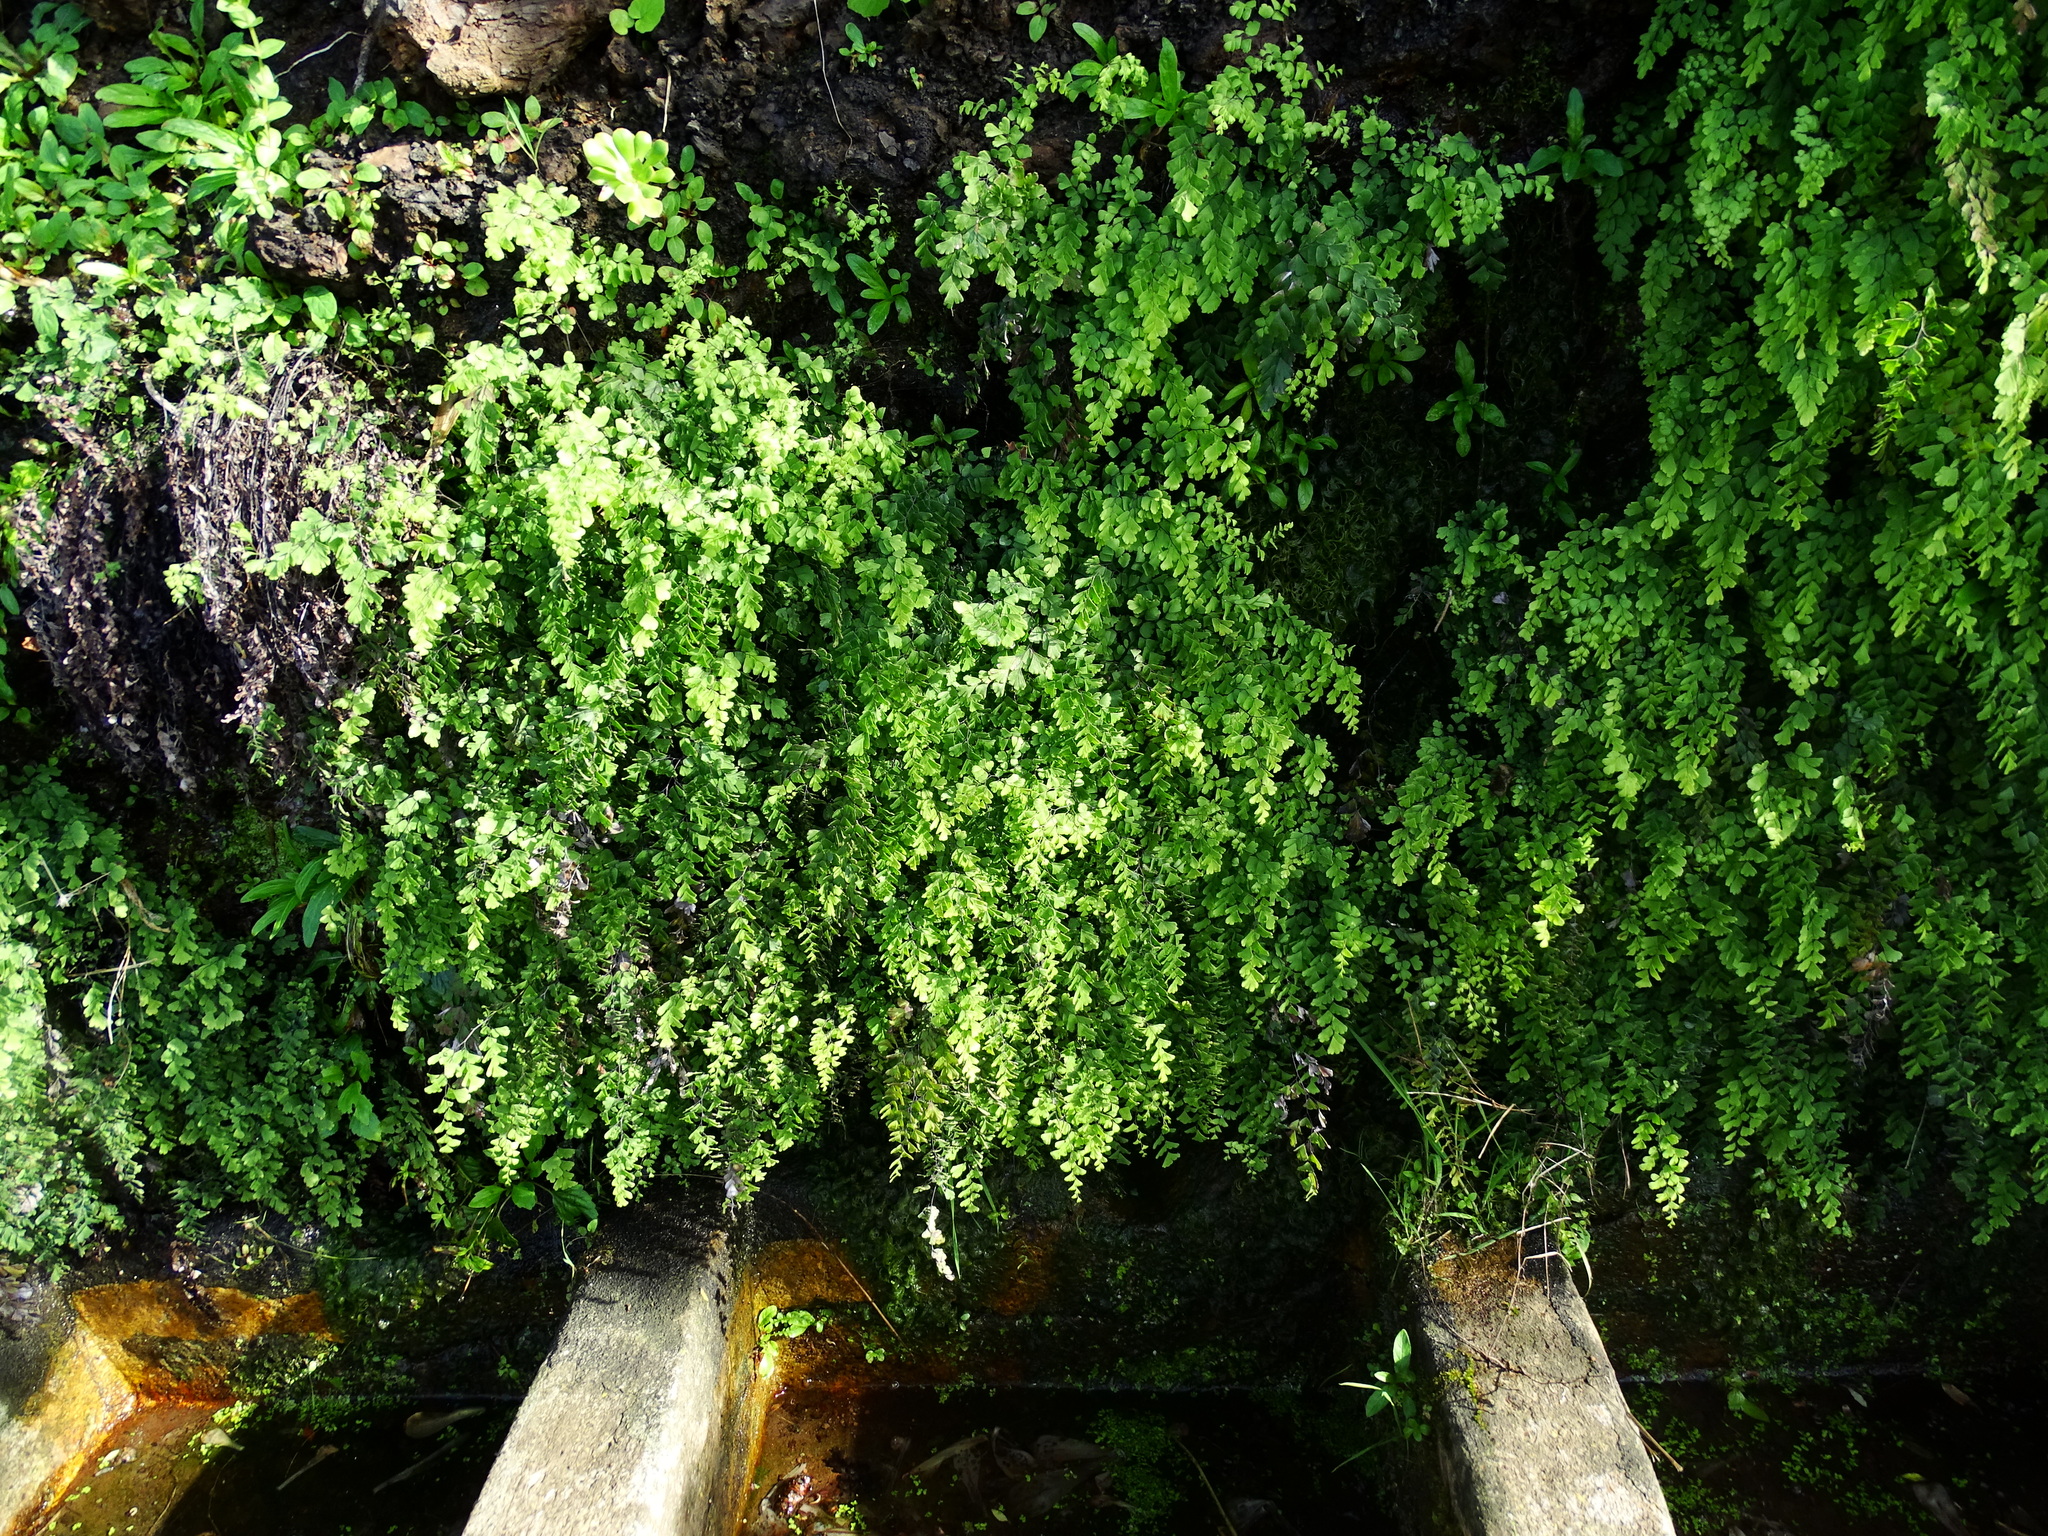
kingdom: Plantae
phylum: Tracheophyta
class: Polypodiopsida
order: Polypodiales
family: Pteridaceae
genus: Adiantum
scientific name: Adiantum capillus-veneris
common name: Maidenhair fern
